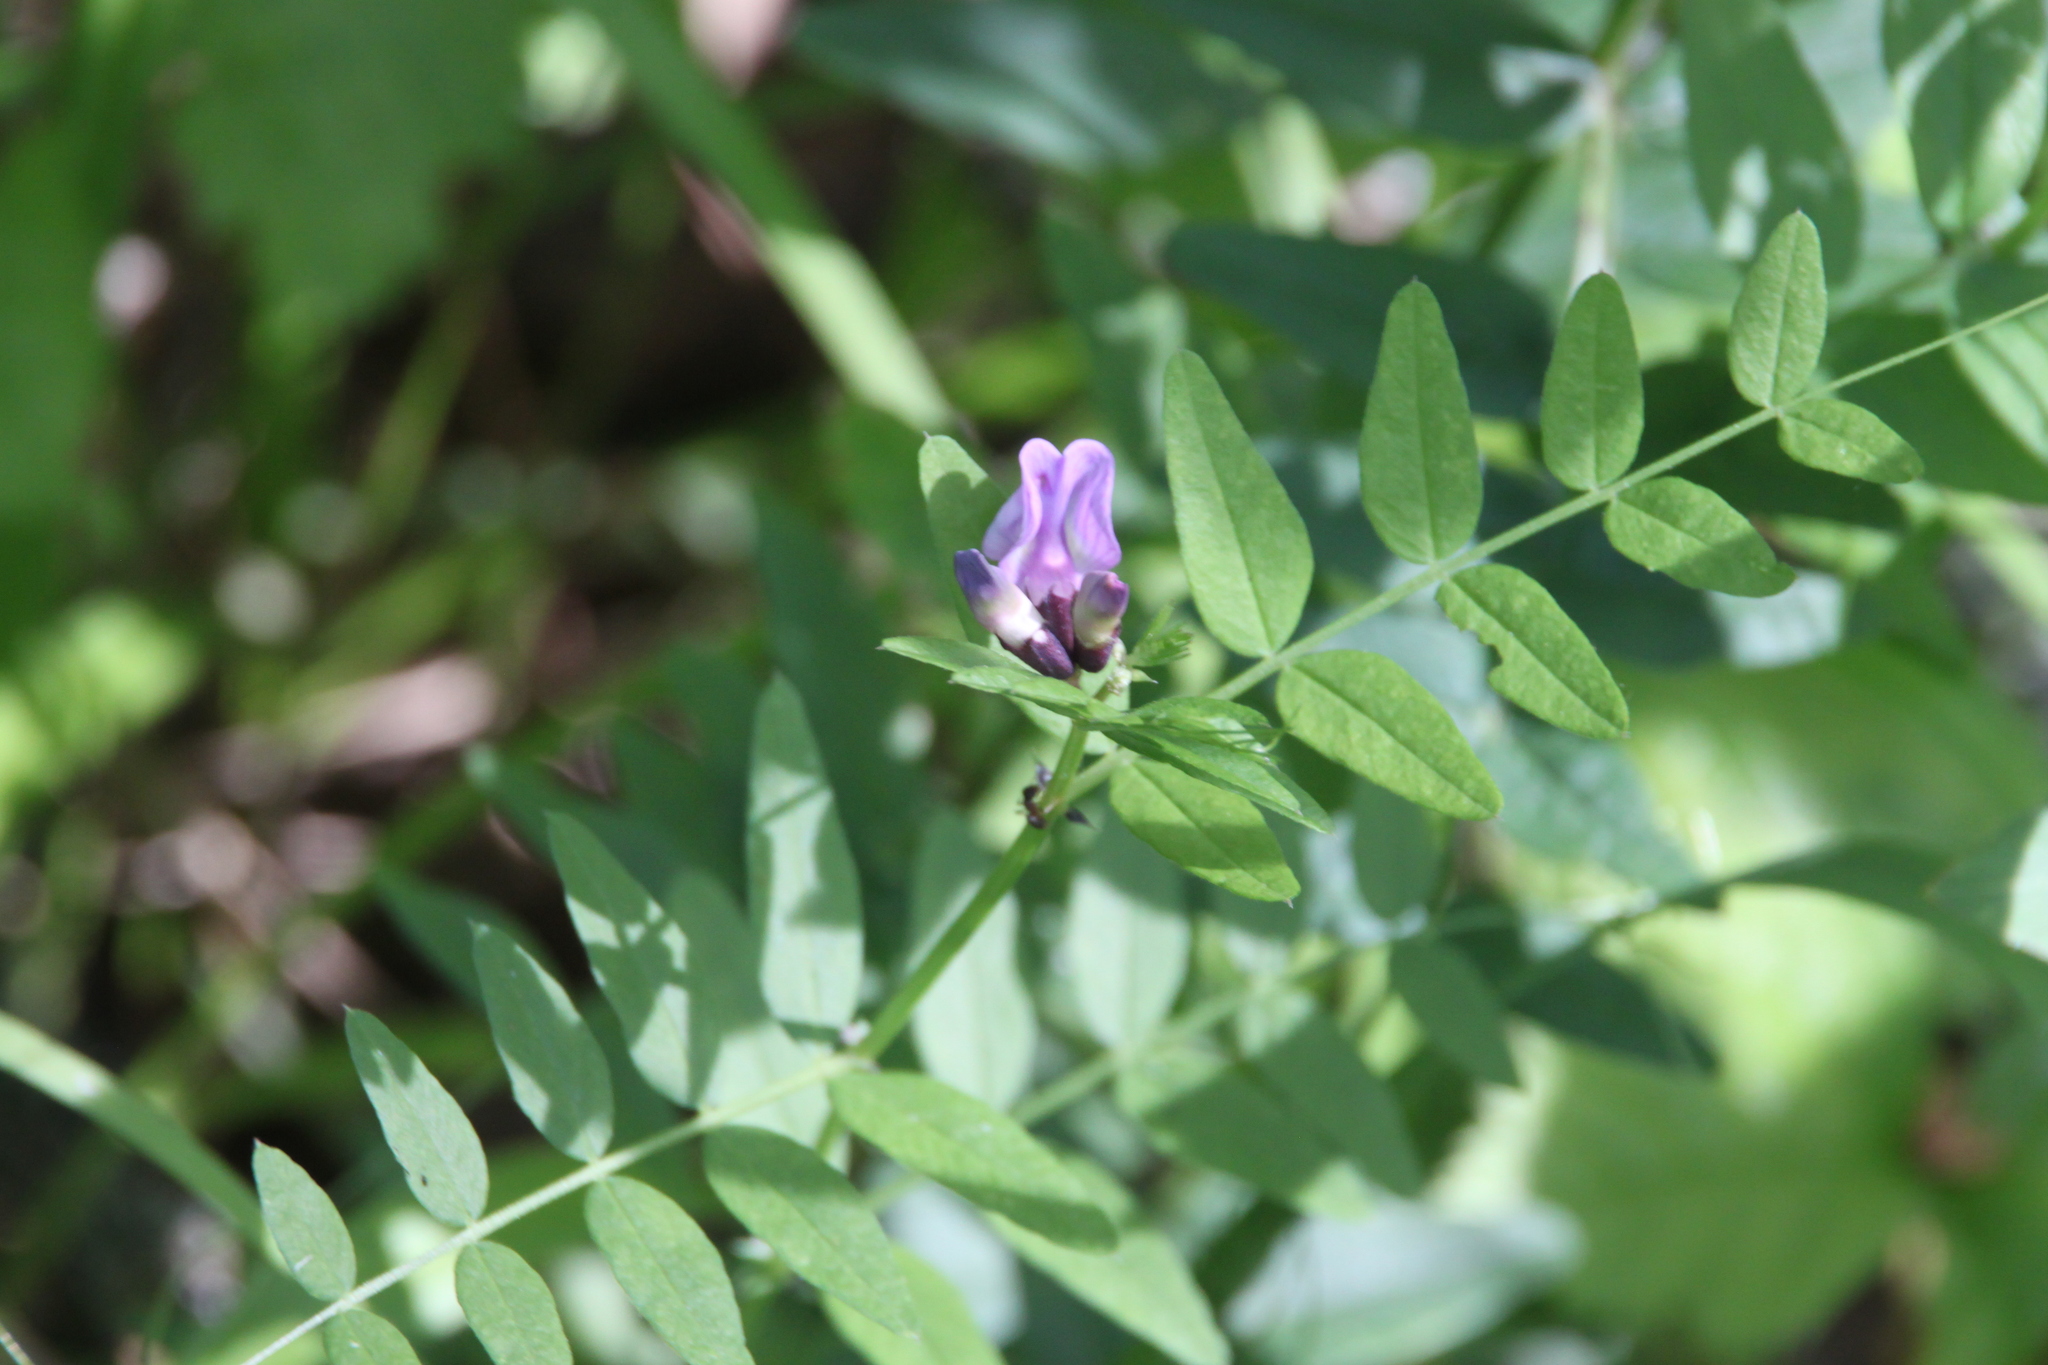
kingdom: Plantae
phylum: Tracheophyta
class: Magnoliopsida
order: Fabales
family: Fabaceae
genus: Vicia
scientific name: Vicia sepium
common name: Bush vetch
